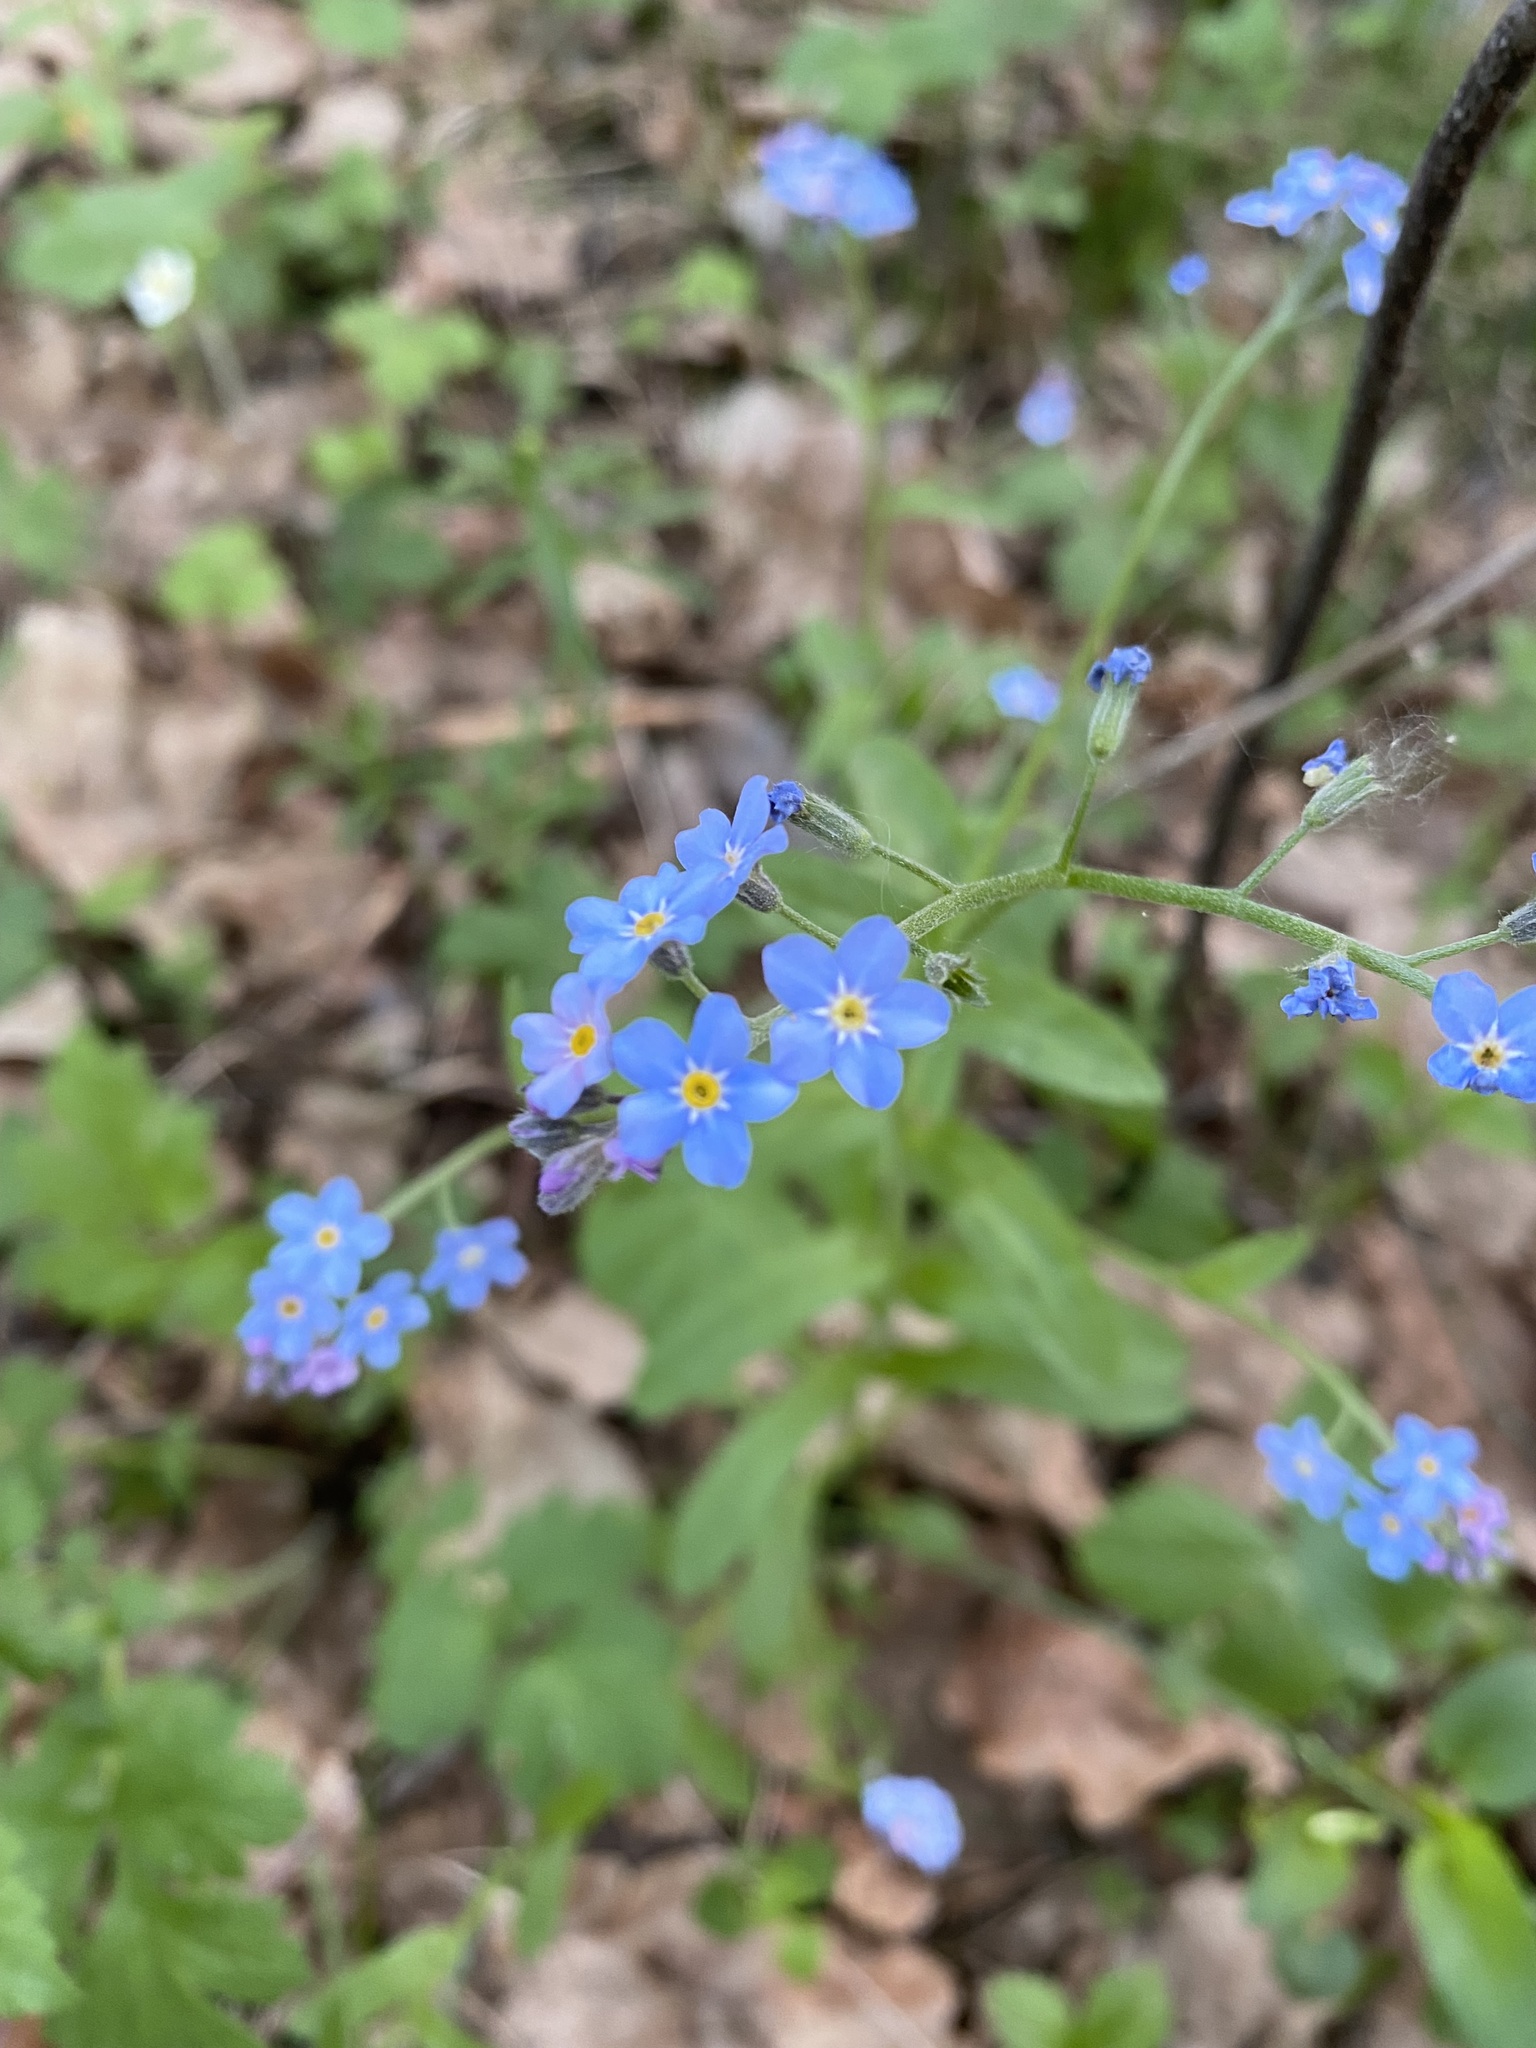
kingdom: Plantae
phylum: Tracheophyta
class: Magnoliopsida
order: Boraginales
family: Boraginaceae
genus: Myosotis
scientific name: Myosotis sylvatica
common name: Wood forget-me-not
